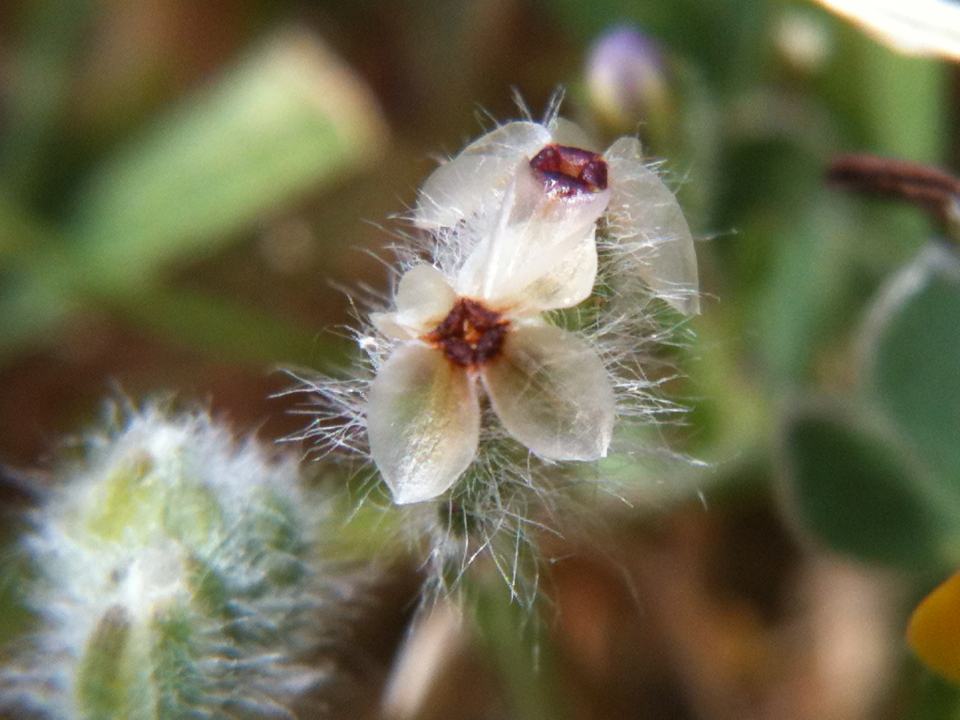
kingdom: Plantae
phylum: Tracheophyta
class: Magnoliopsida
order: Lamiales
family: Plantaginaceae
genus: Plantago
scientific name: Plantago erecta
